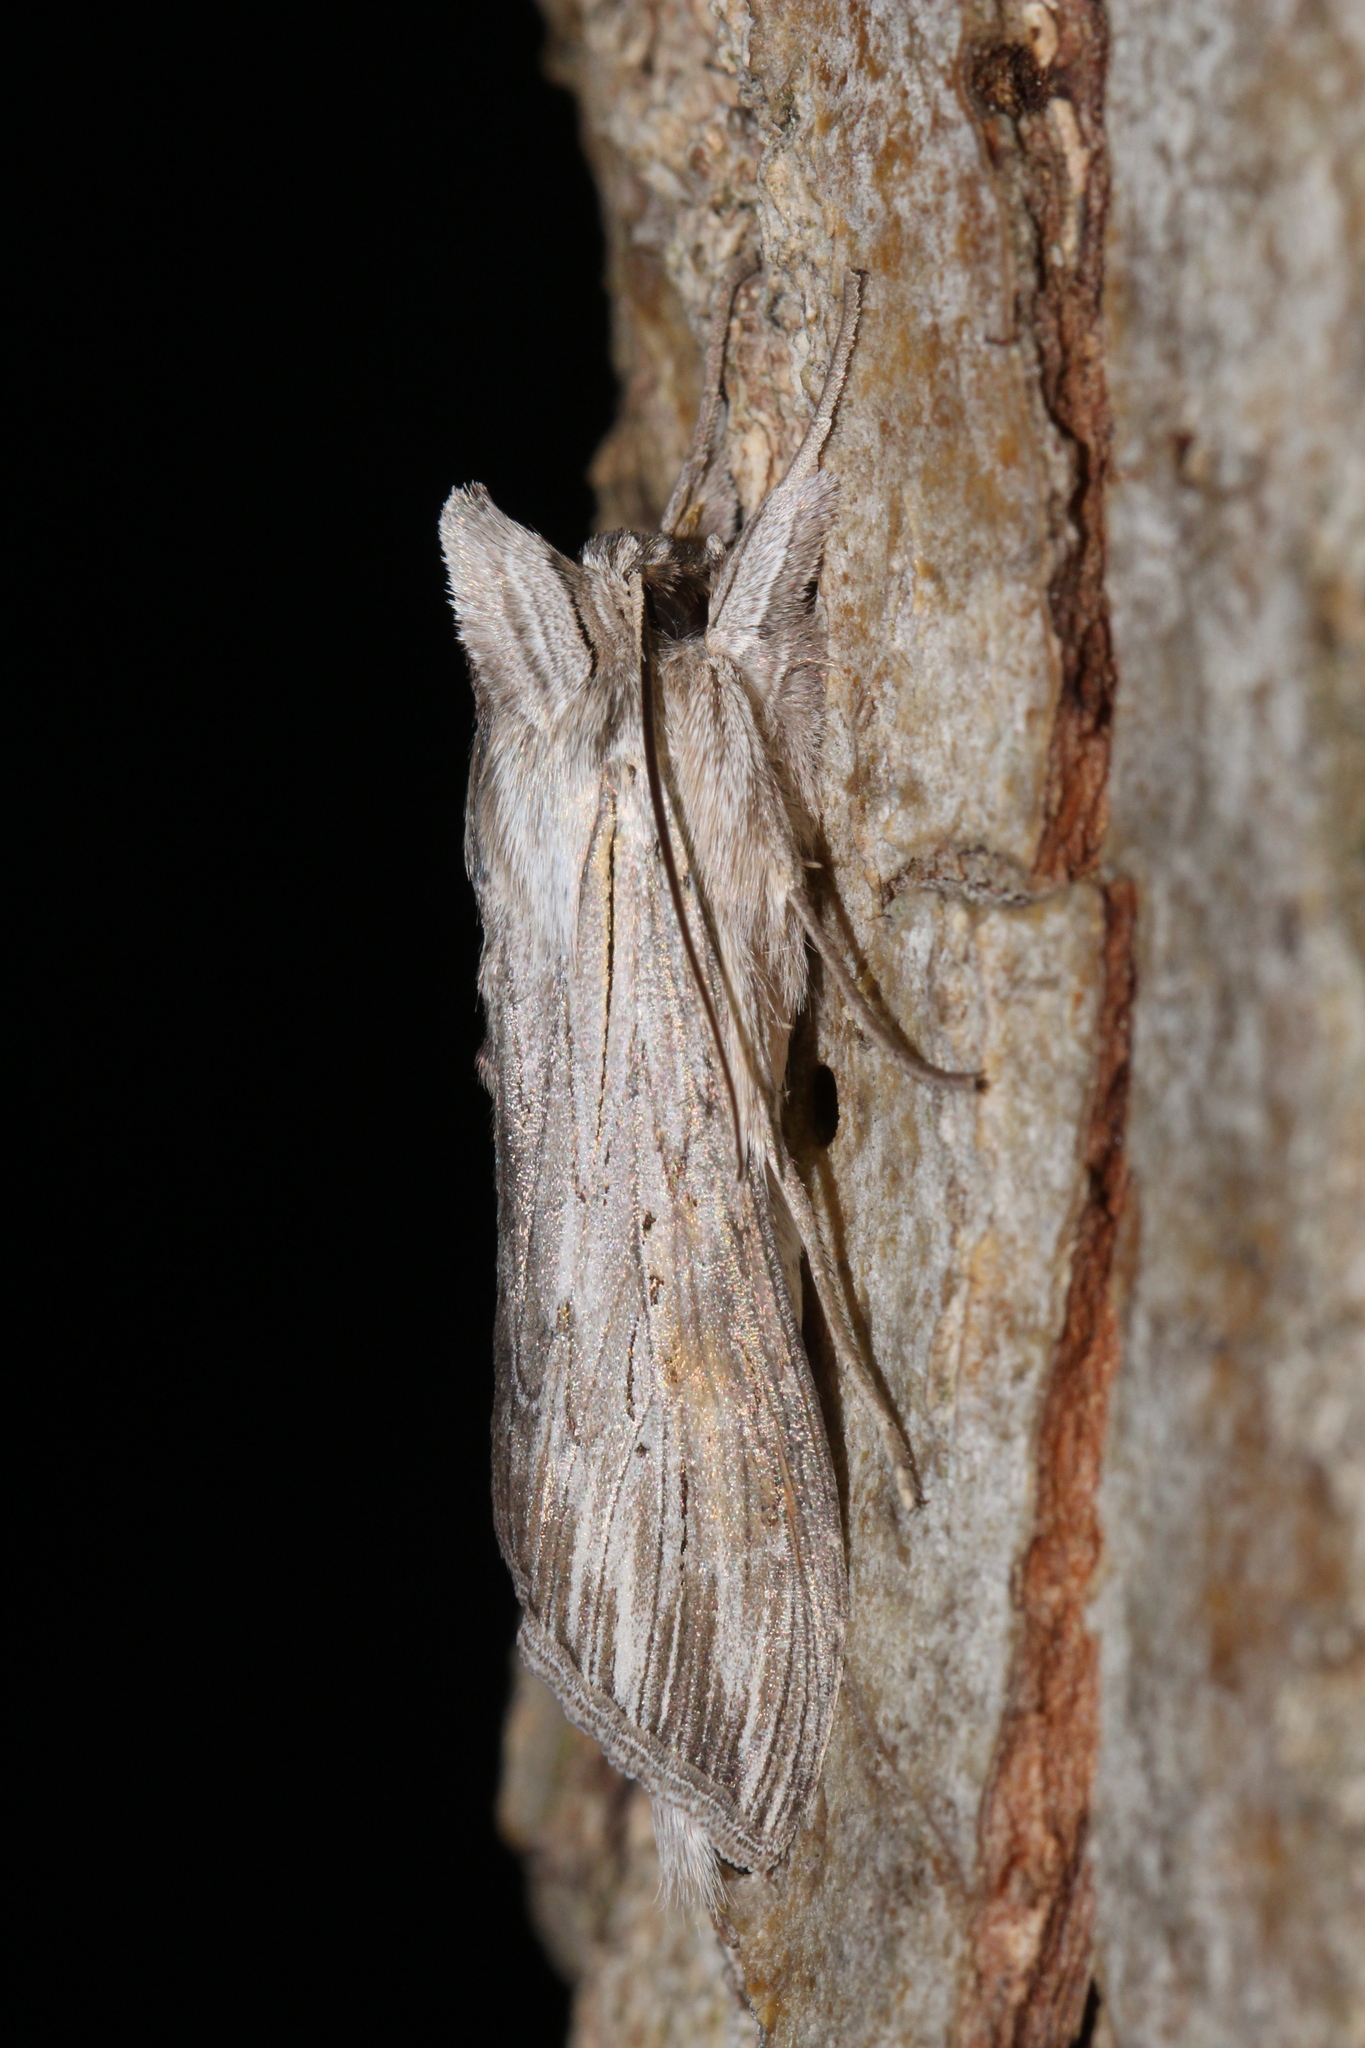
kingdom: Animalia
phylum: Arthropoda
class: Insecta
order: Lepidoptera
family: Noctuidae
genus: Cucullia
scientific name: Cucullia umbratica
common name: Shark
